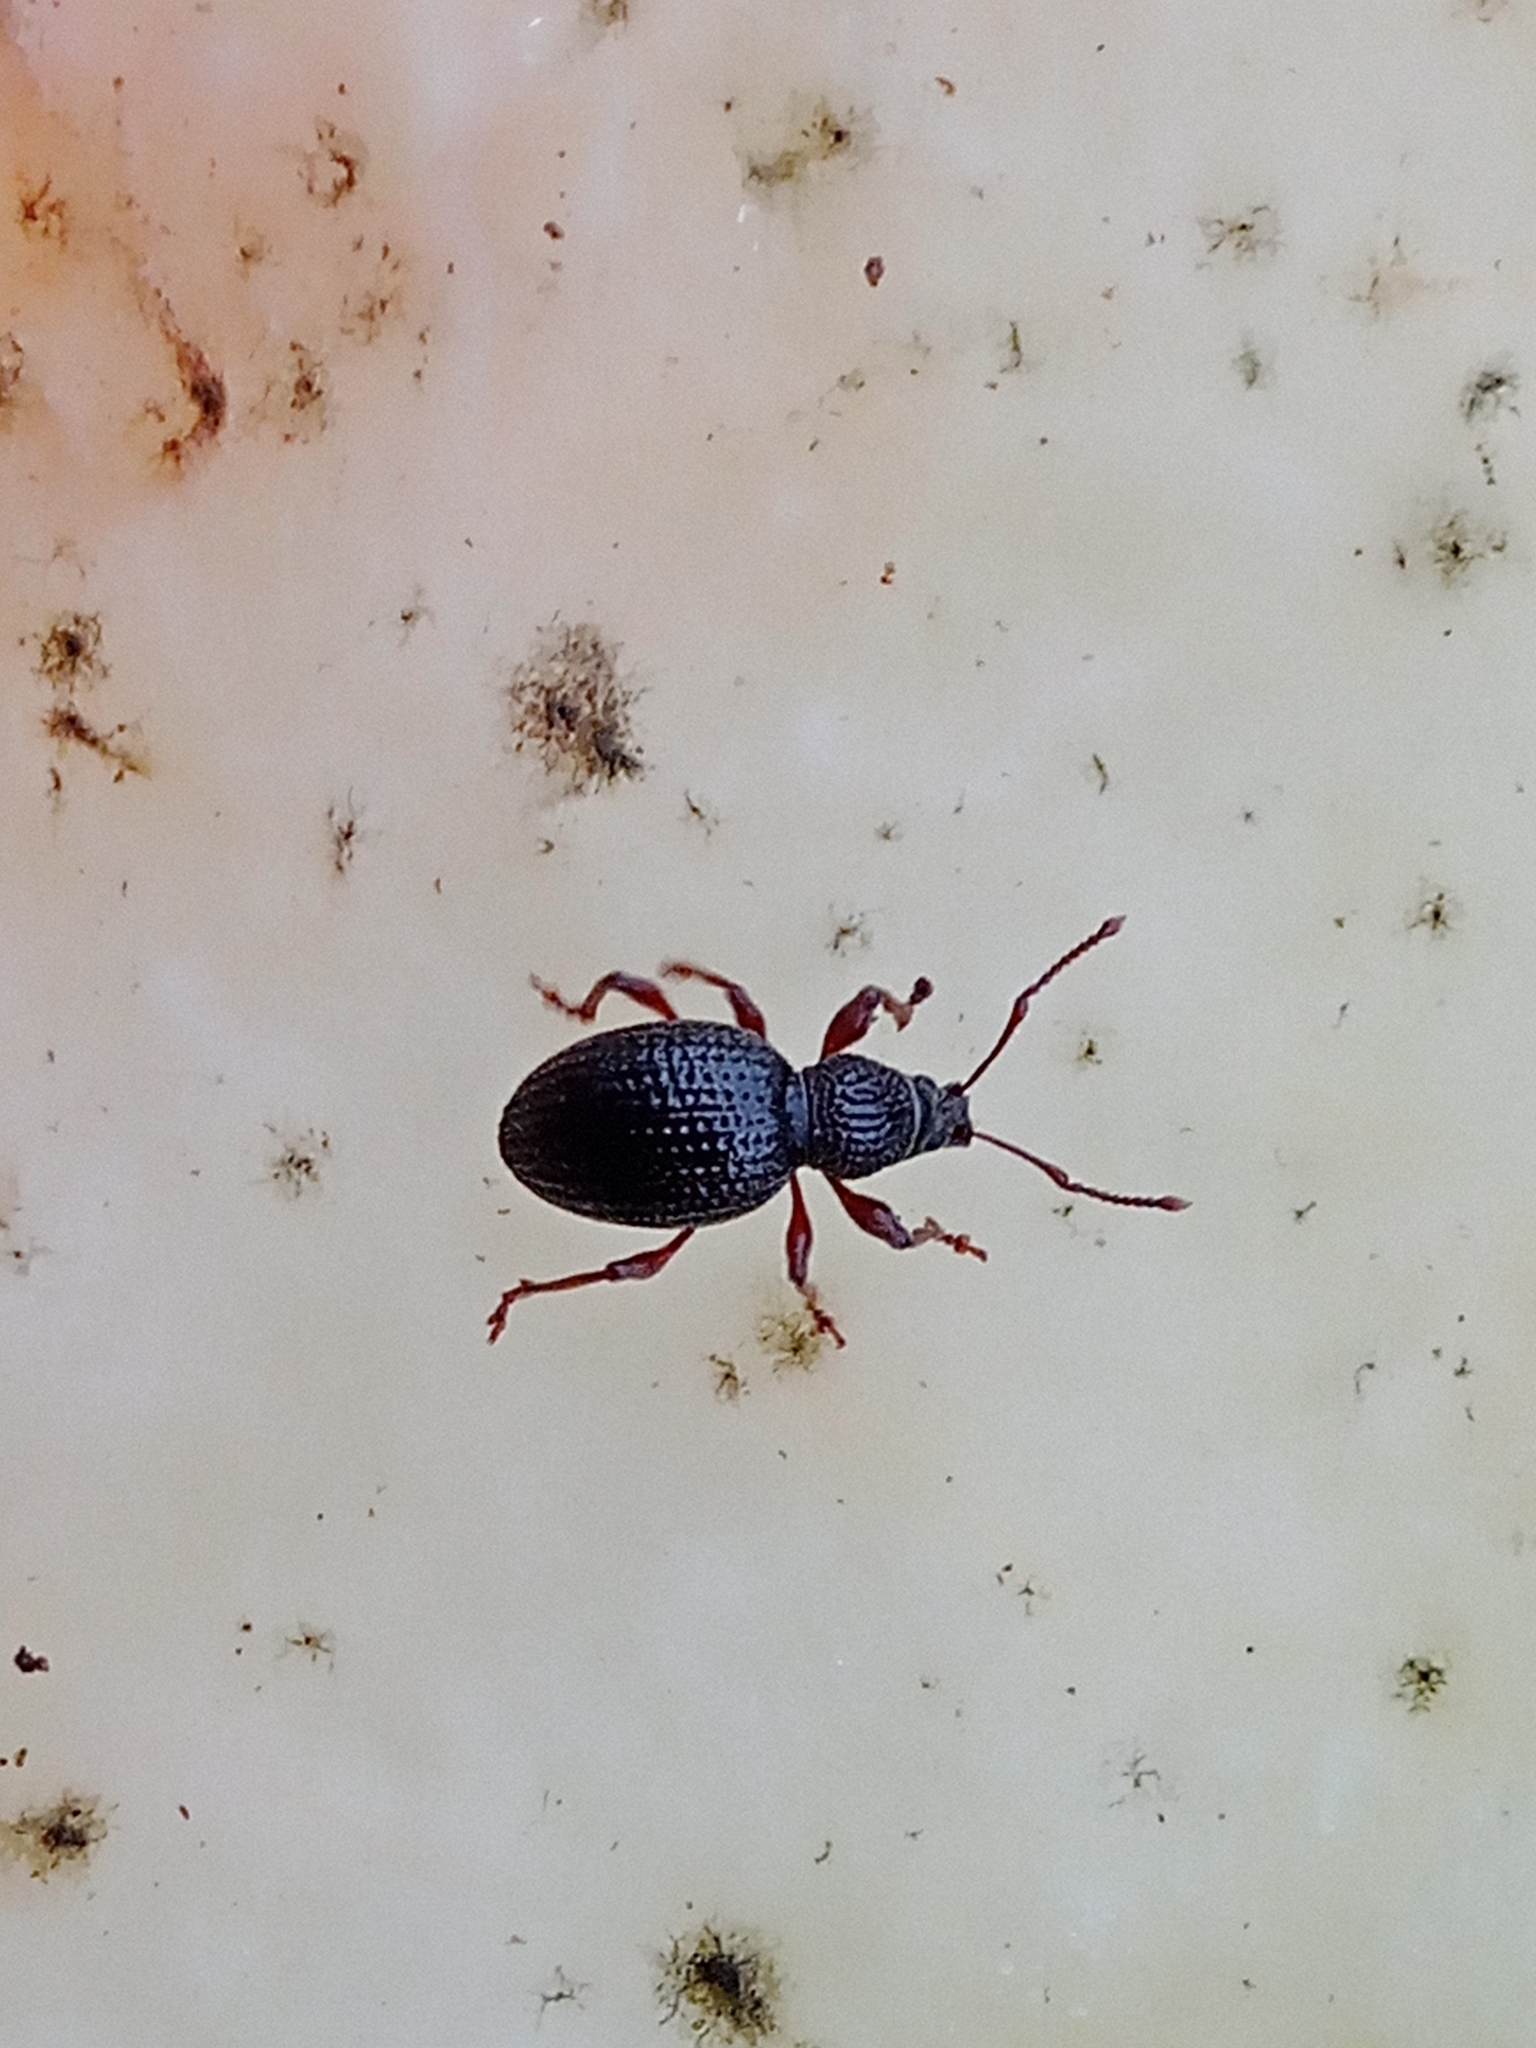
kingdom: Animalia
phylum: Arthropoda
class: Insecta
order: Coleoptera
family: Curculionidae
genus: Otiorhynchus
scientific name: Otiorhynchus ovatus
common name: Strawberry root weevil
